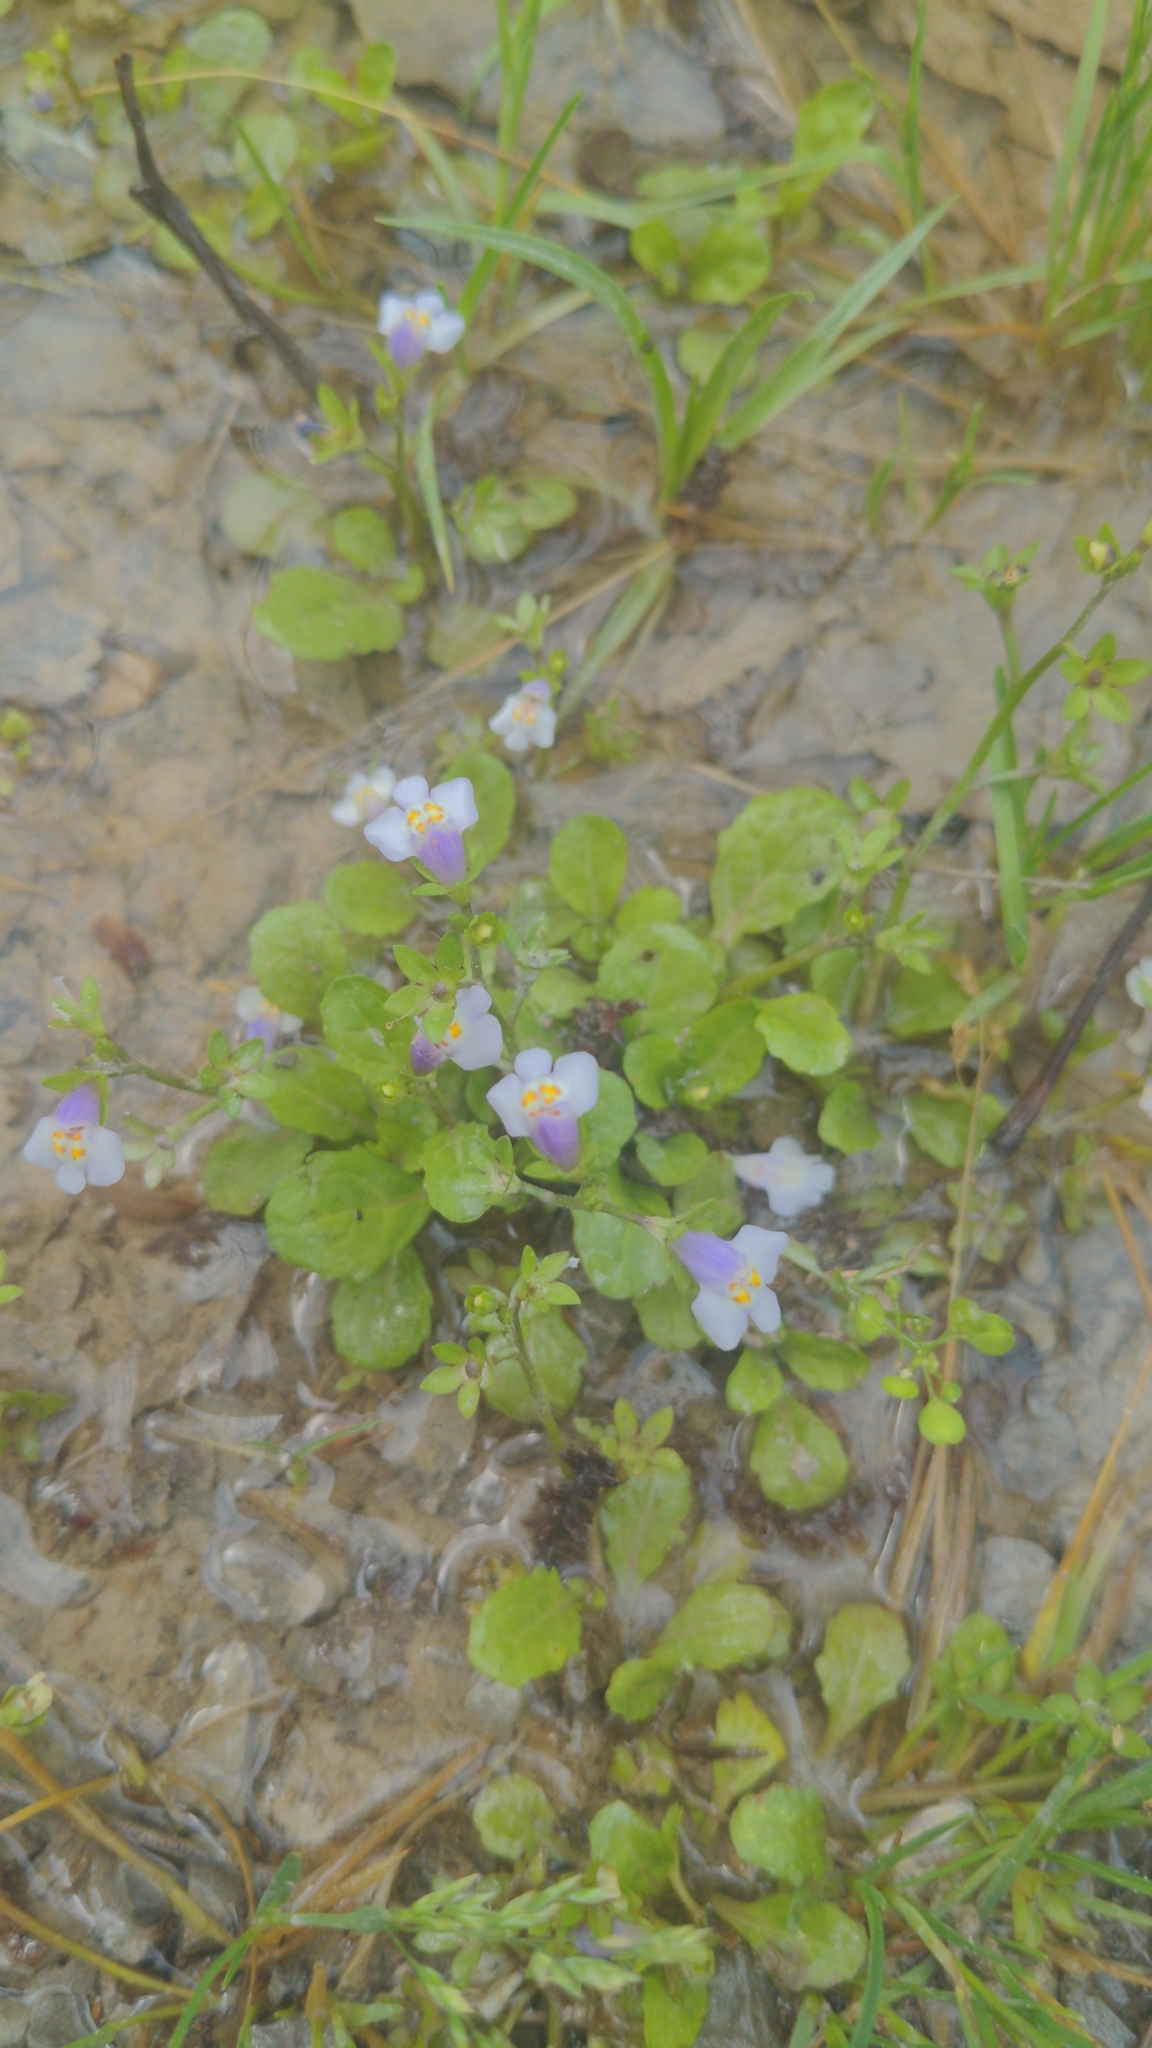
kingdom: Plantae
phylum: Tracheophyta
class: Magnoliopsida
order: Lamiales
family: Mazaceae
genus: Mazus
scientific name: Mazus pumilus
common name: Japanese mazus
